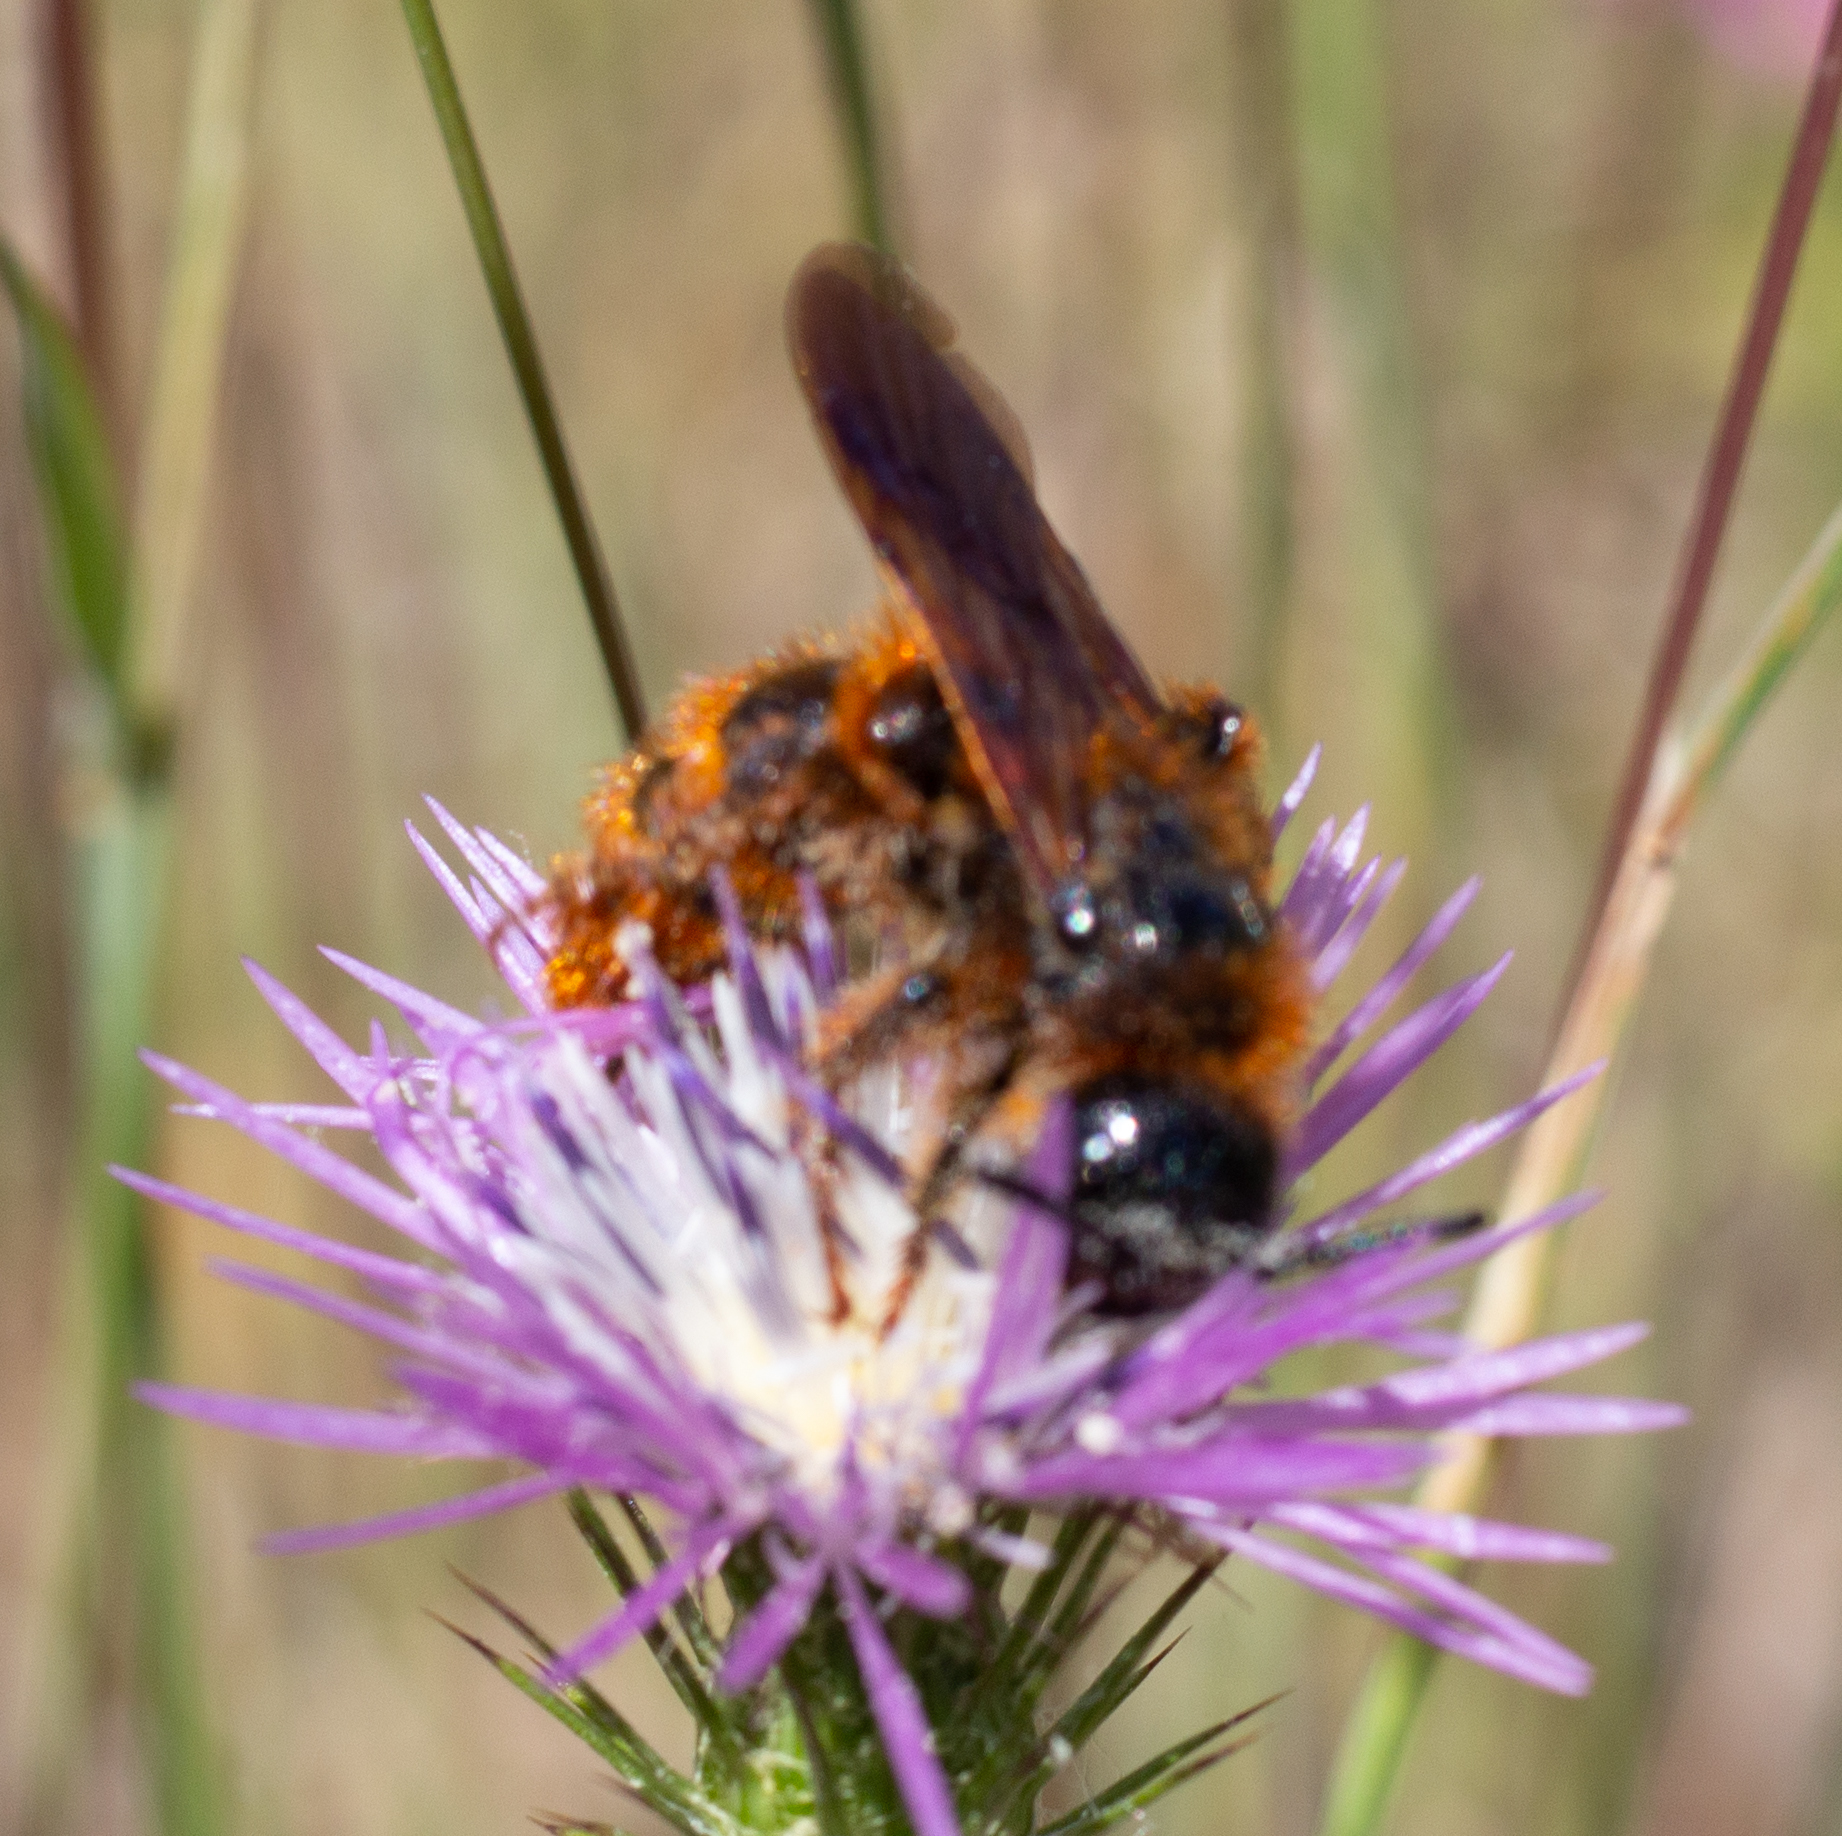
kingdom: Animalia
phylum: Arthropoda
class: Insecta
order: Hymenoptera
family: Scoliidae
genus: Dasyscolia
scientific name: Dasyscolia ciliata
